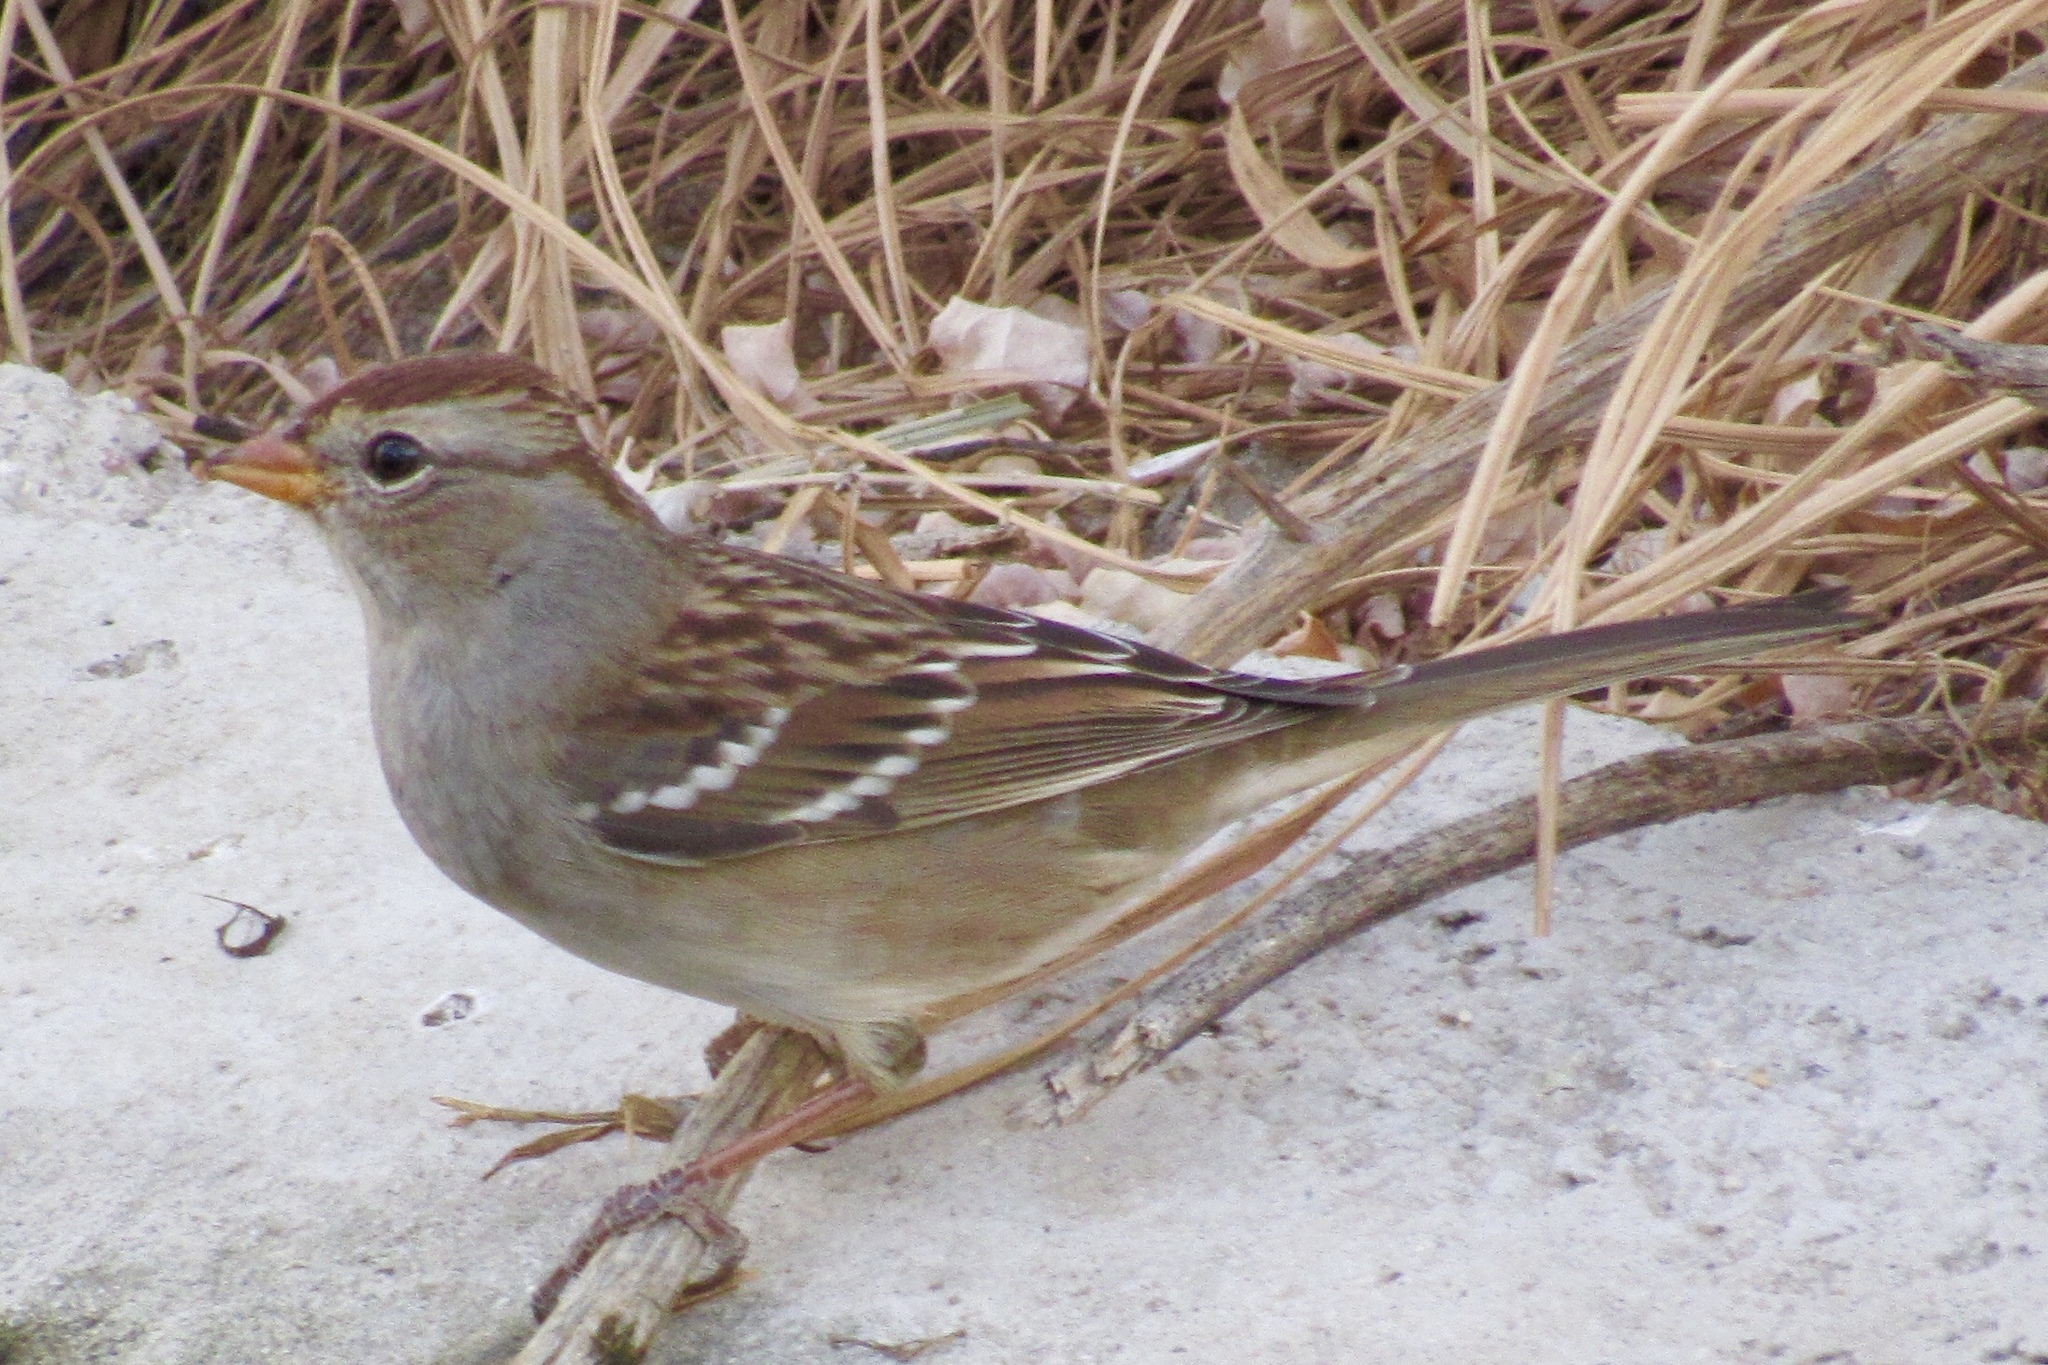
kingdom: Animalia
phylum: Chordata
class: Aves
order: Passeriformes
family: Passerellidae
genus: Zonotrichia
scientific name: Zonotrichia leucophrys
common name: White-crowned sparrow
